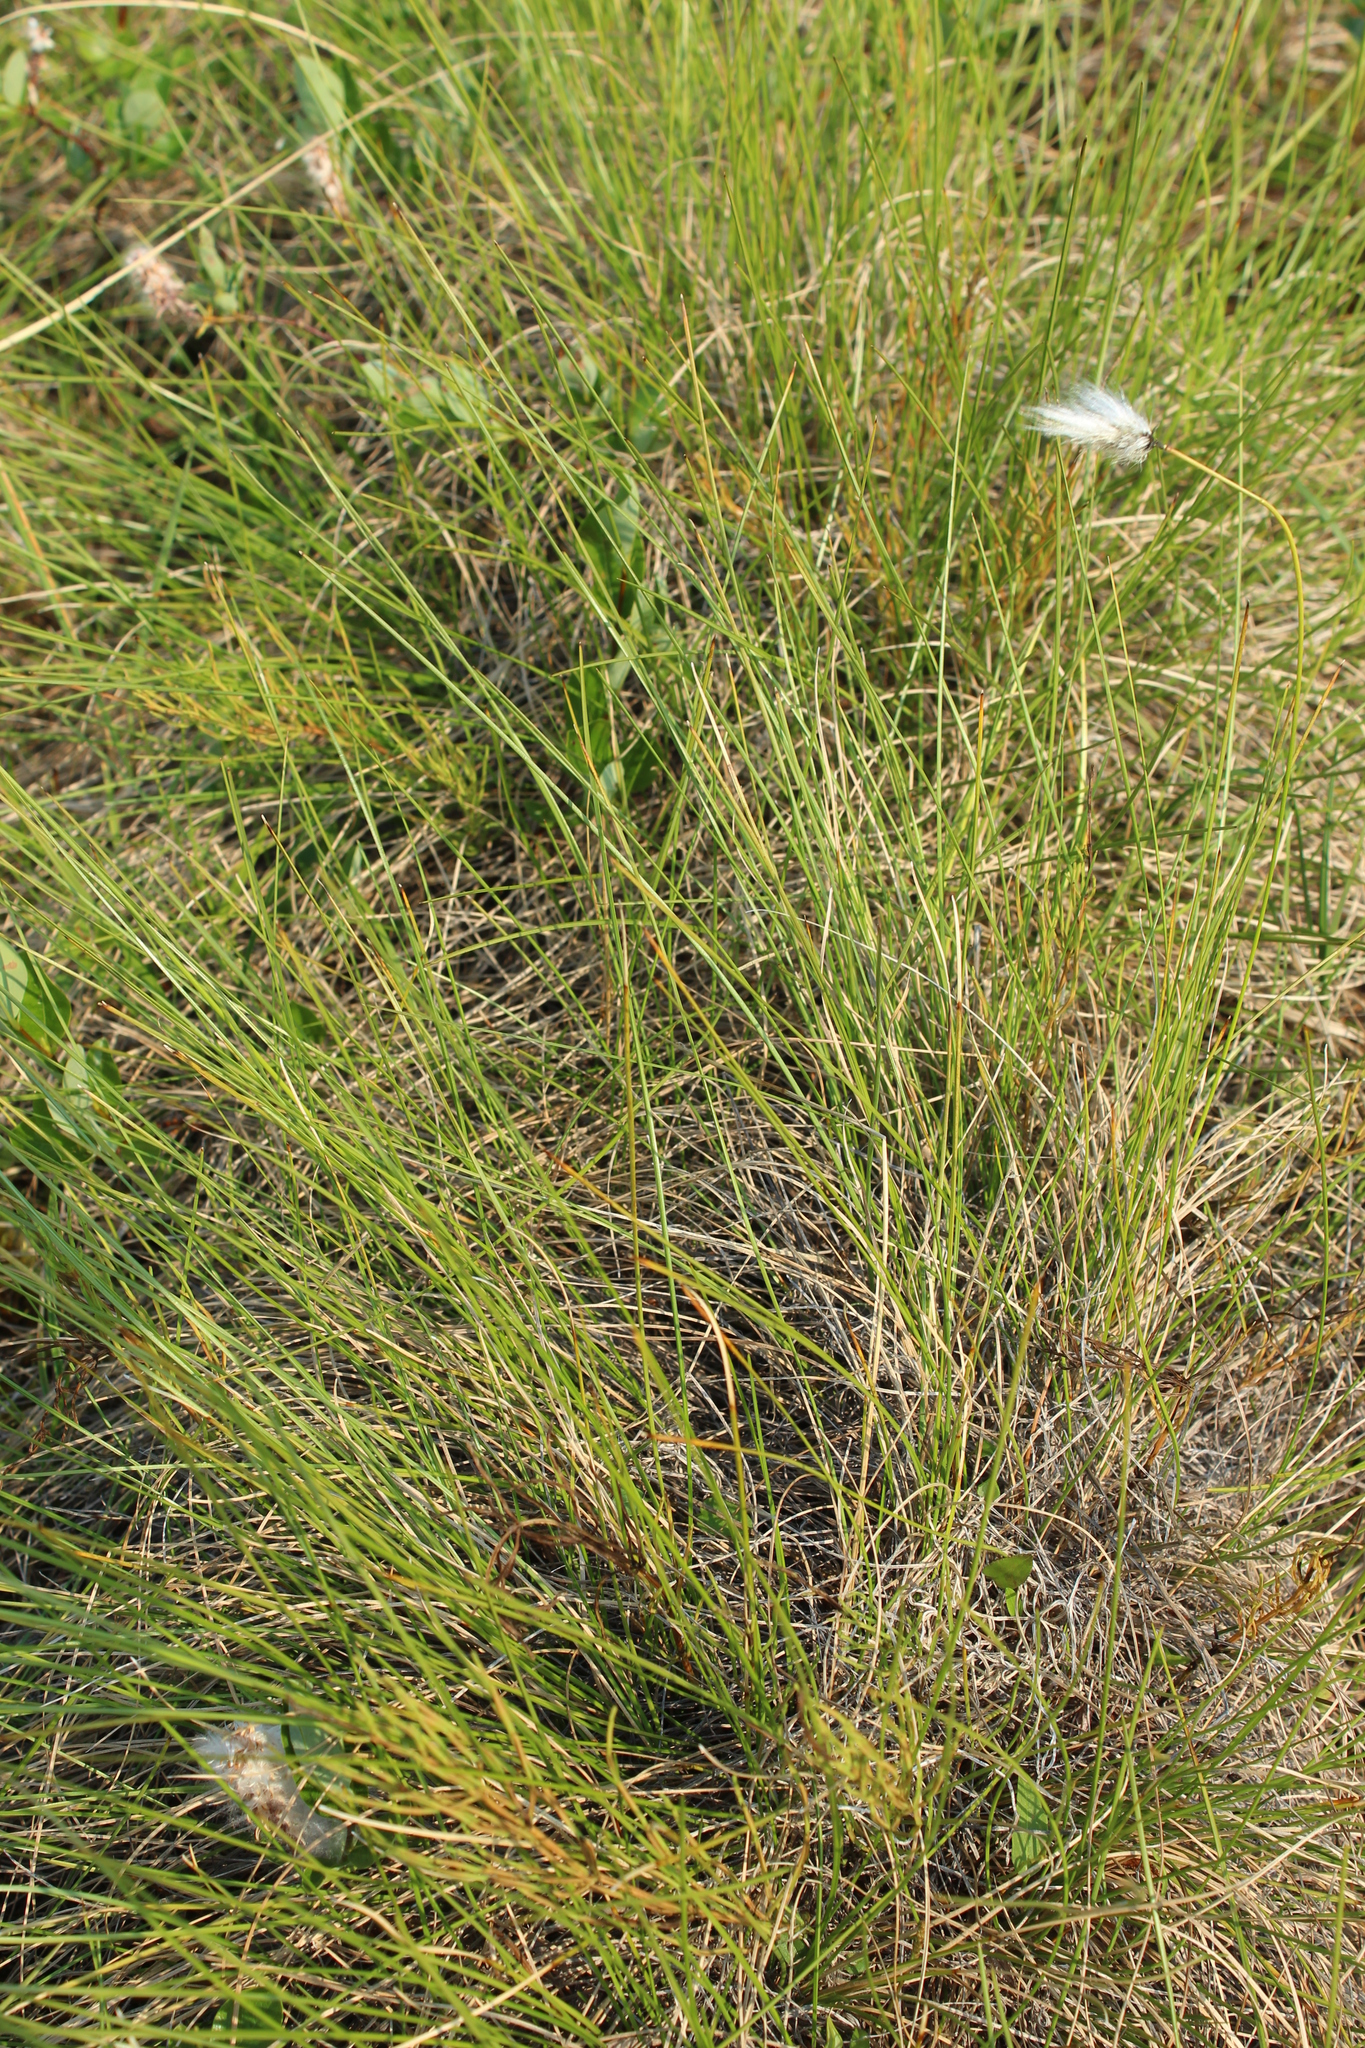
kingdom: Plantae
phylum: Tracheophyta
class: Liliopsida
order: Poales
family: Cyperaceae
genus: Eriophorum
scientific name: Eriophorum vaginatum
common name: Hare's-tail cottongrass
